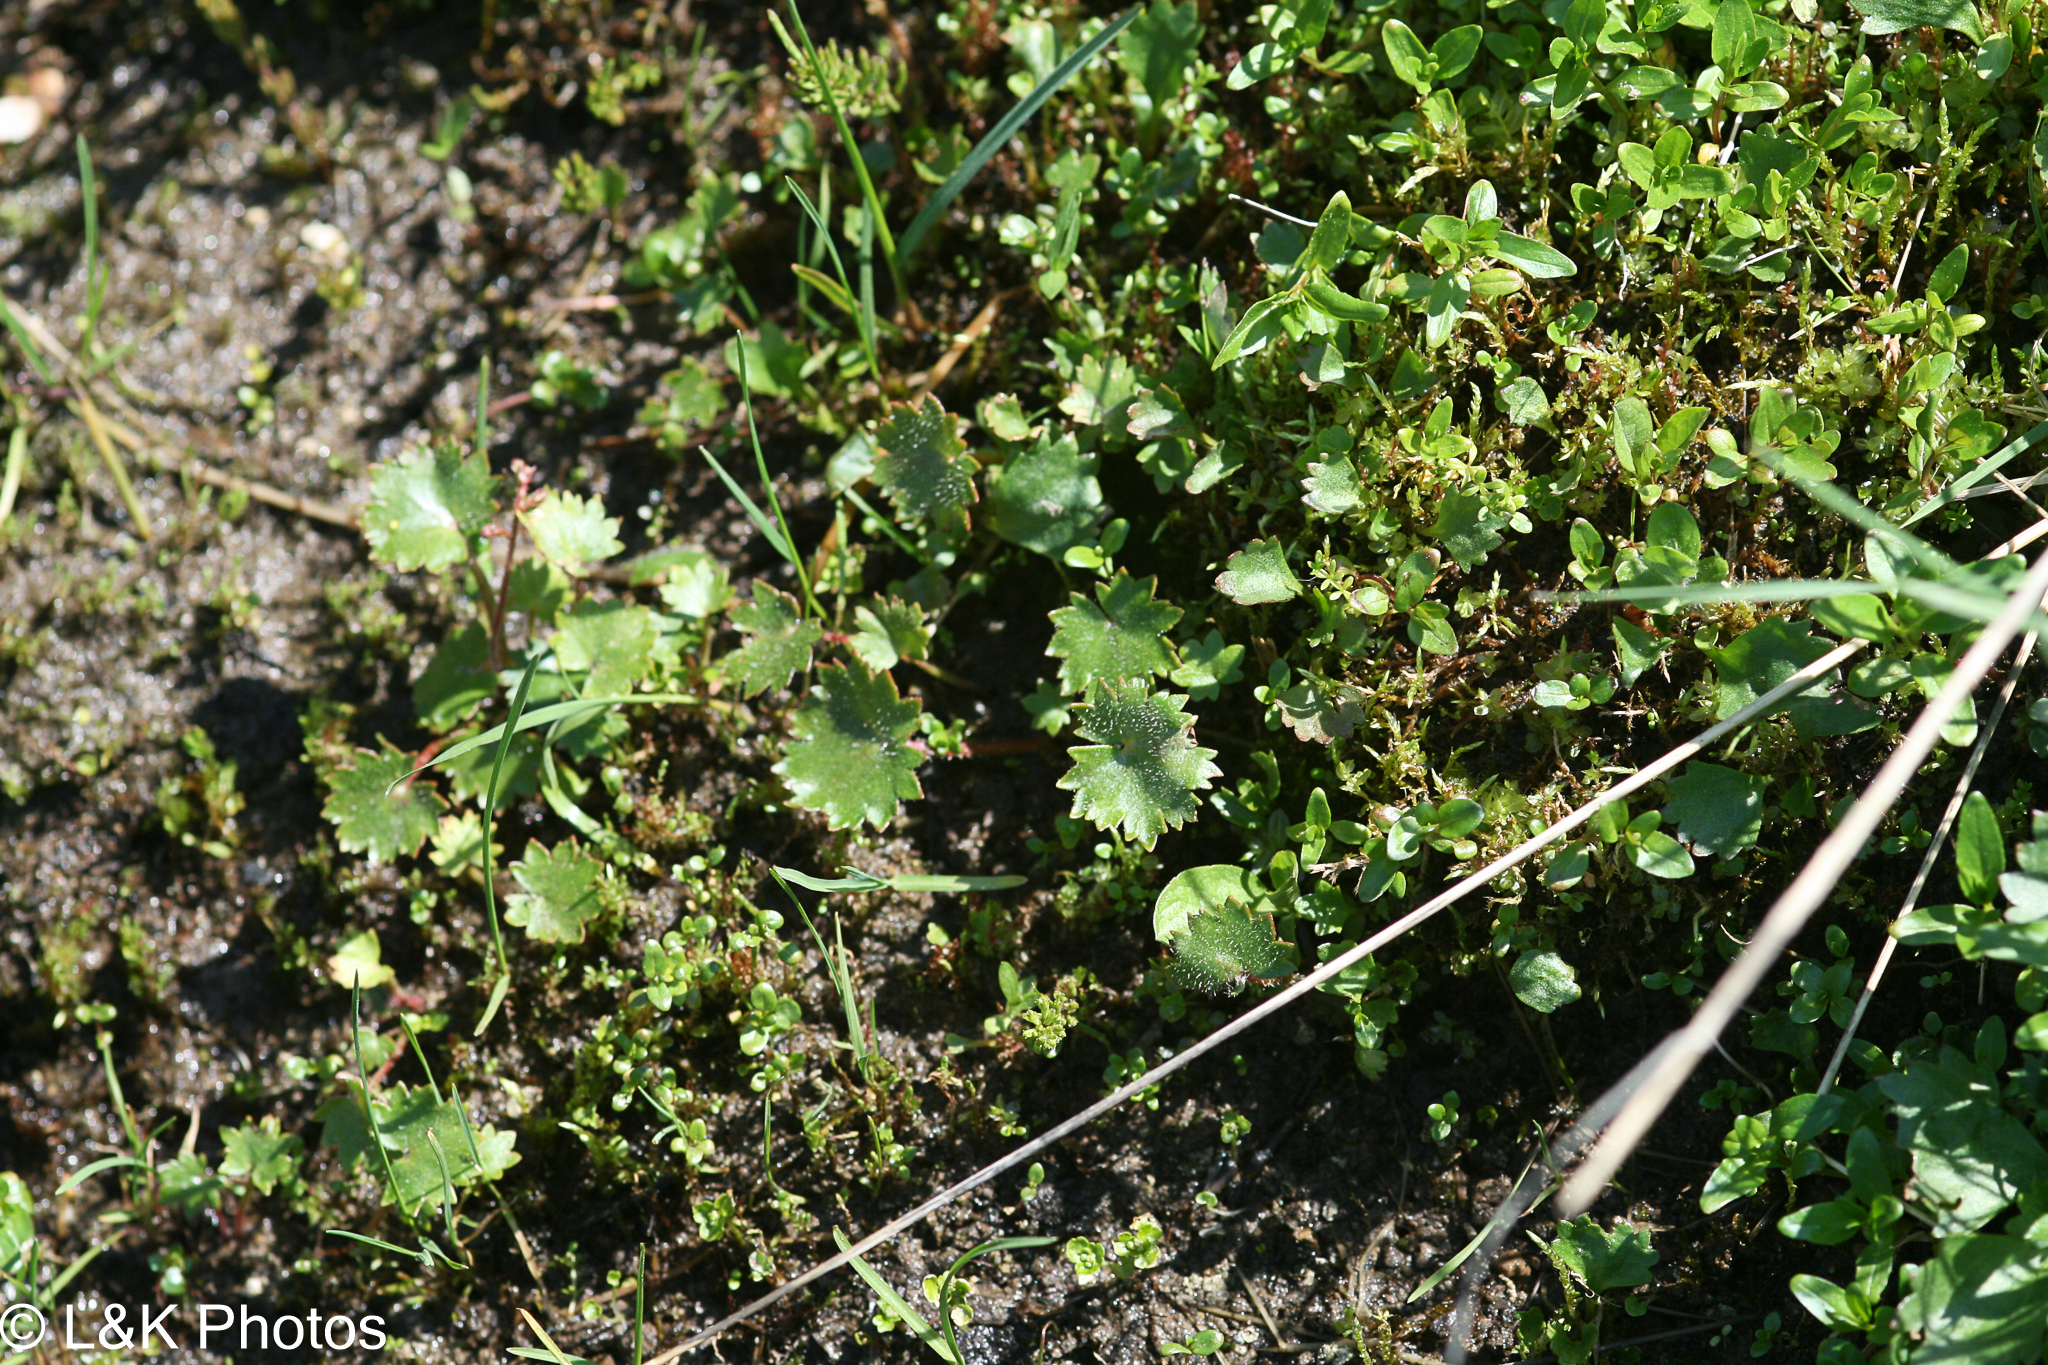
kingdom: Plantae
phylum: Tracheophyta
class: Magnoliopsida
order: Saxifragales
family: Saxifragaceae
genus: Micranthes
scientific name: Micranthes mertensiana
